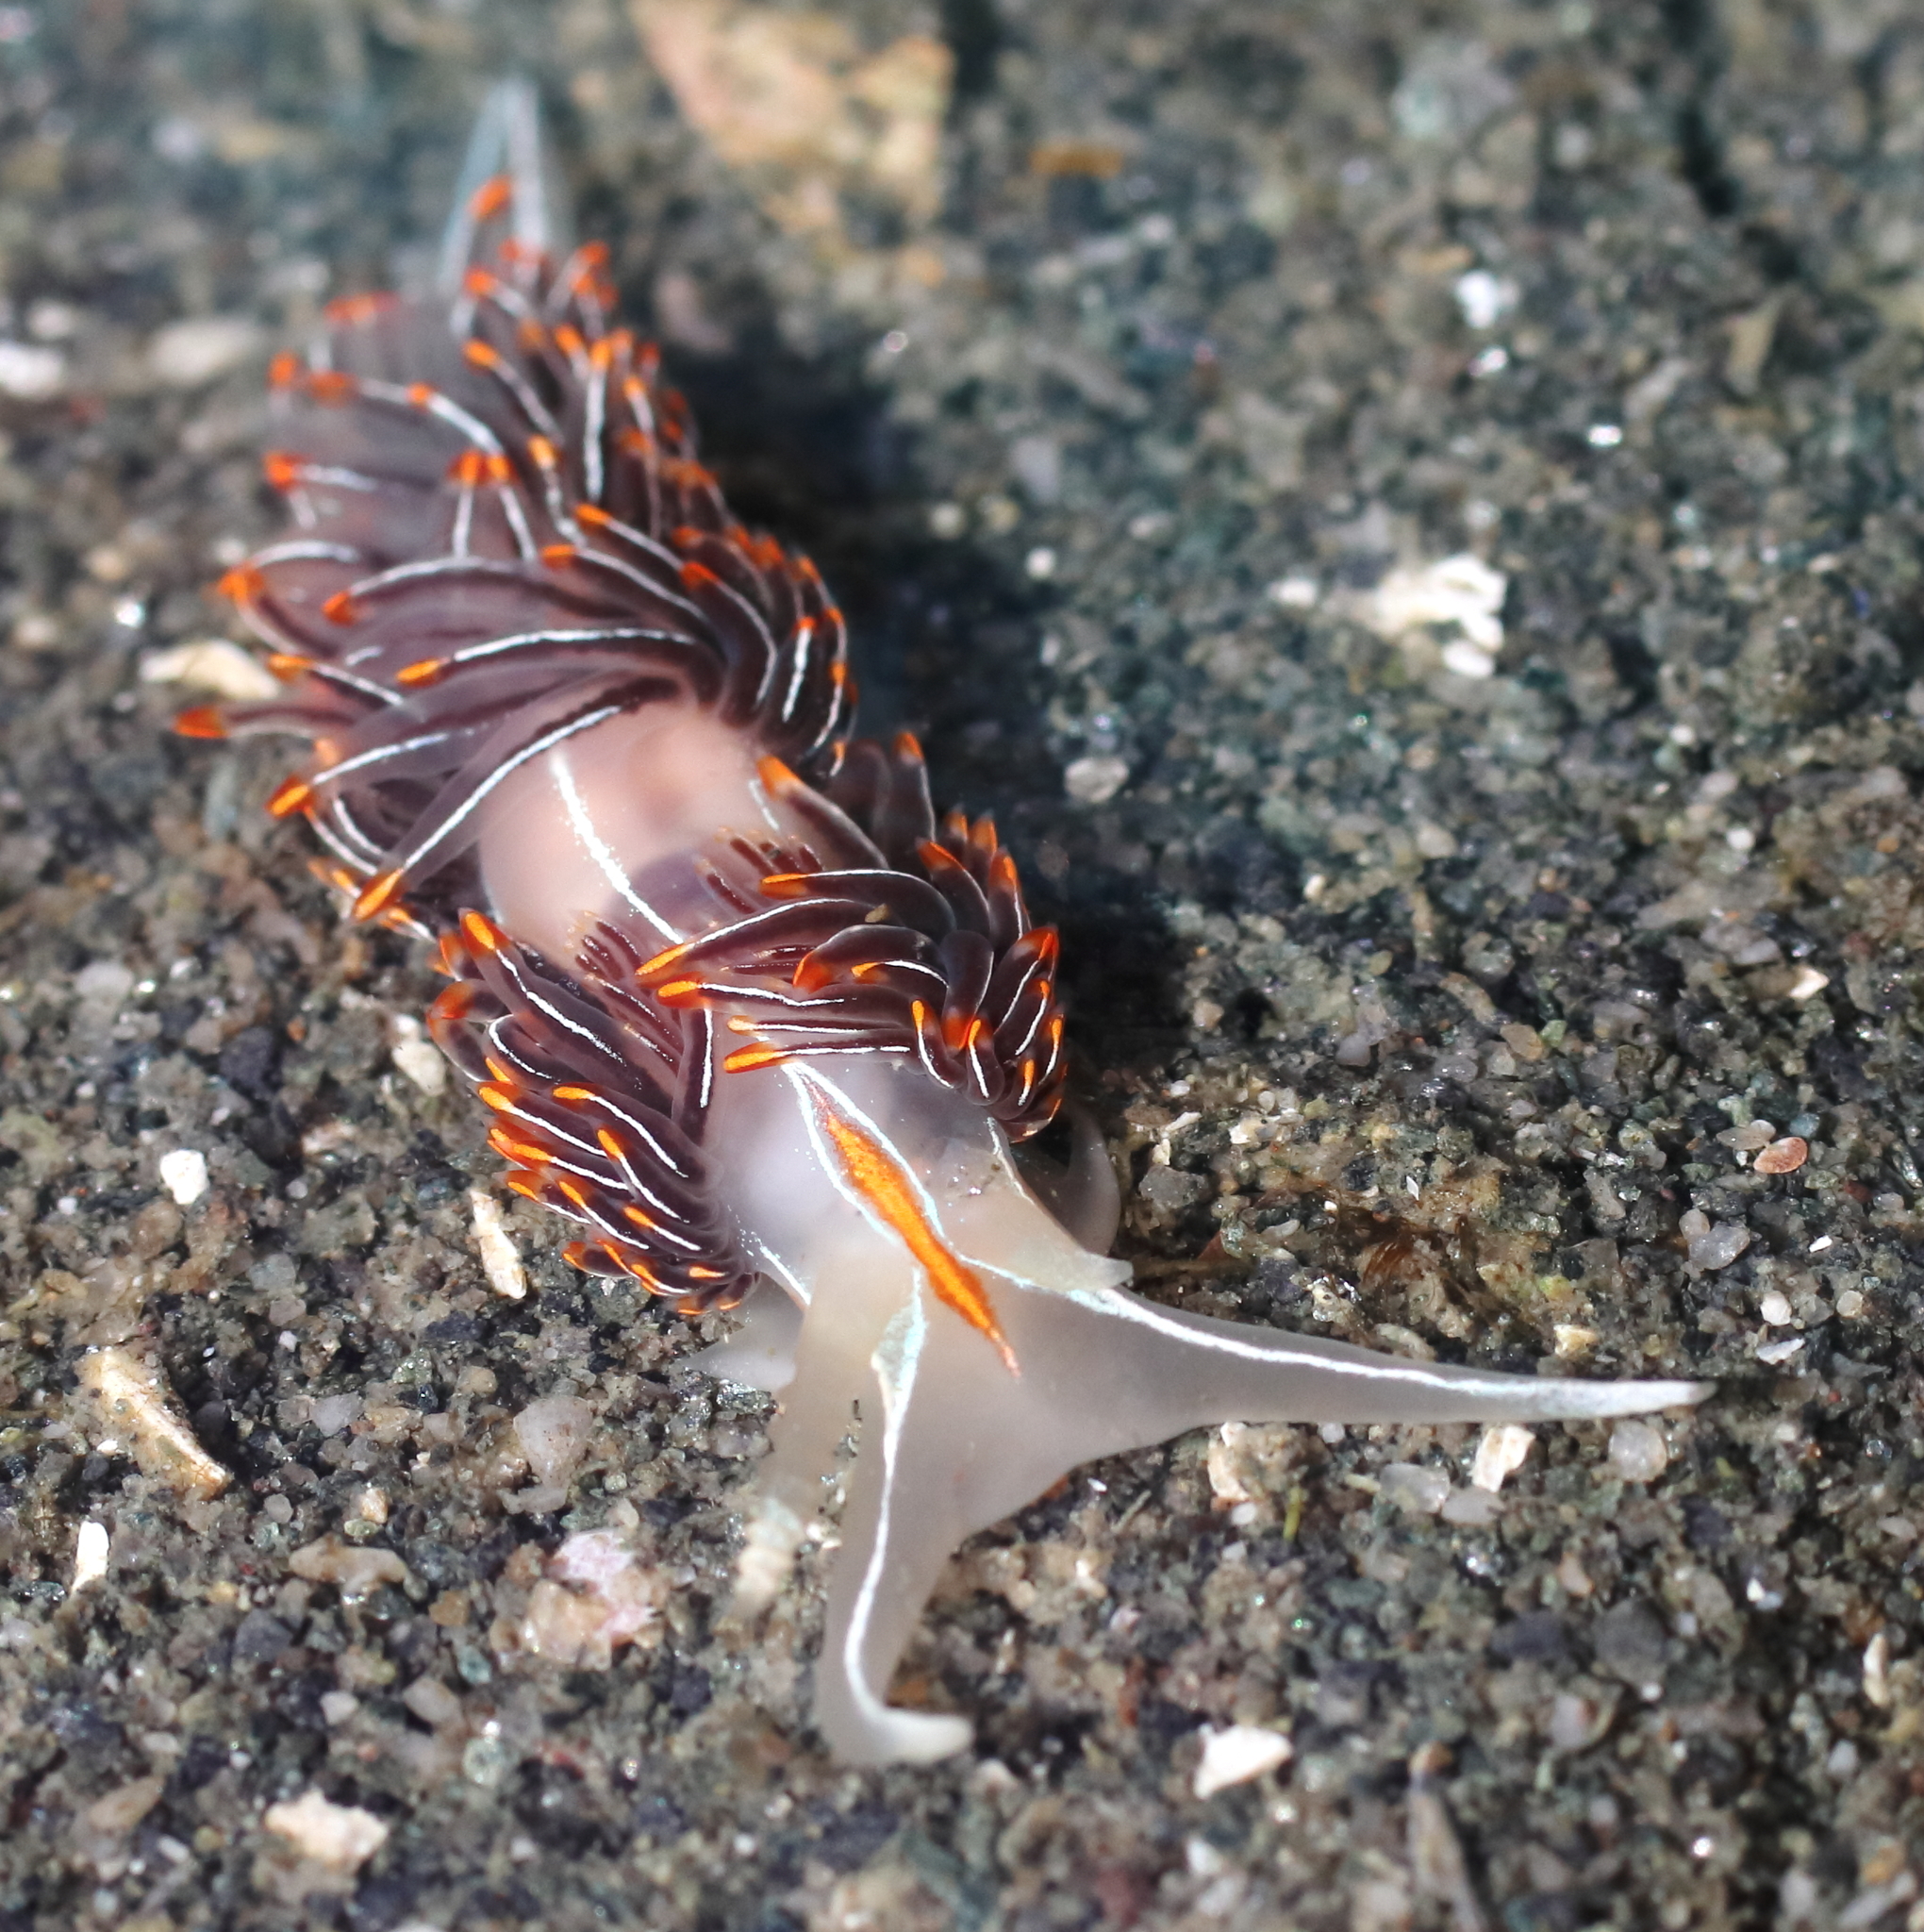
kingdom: Animalia
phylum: Mollusca
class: Gastropoda
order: Nudibranchia
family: Myrrhinidae
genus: Hermissenda
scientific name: Hermissenda crassicornis
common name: Hermissenda
